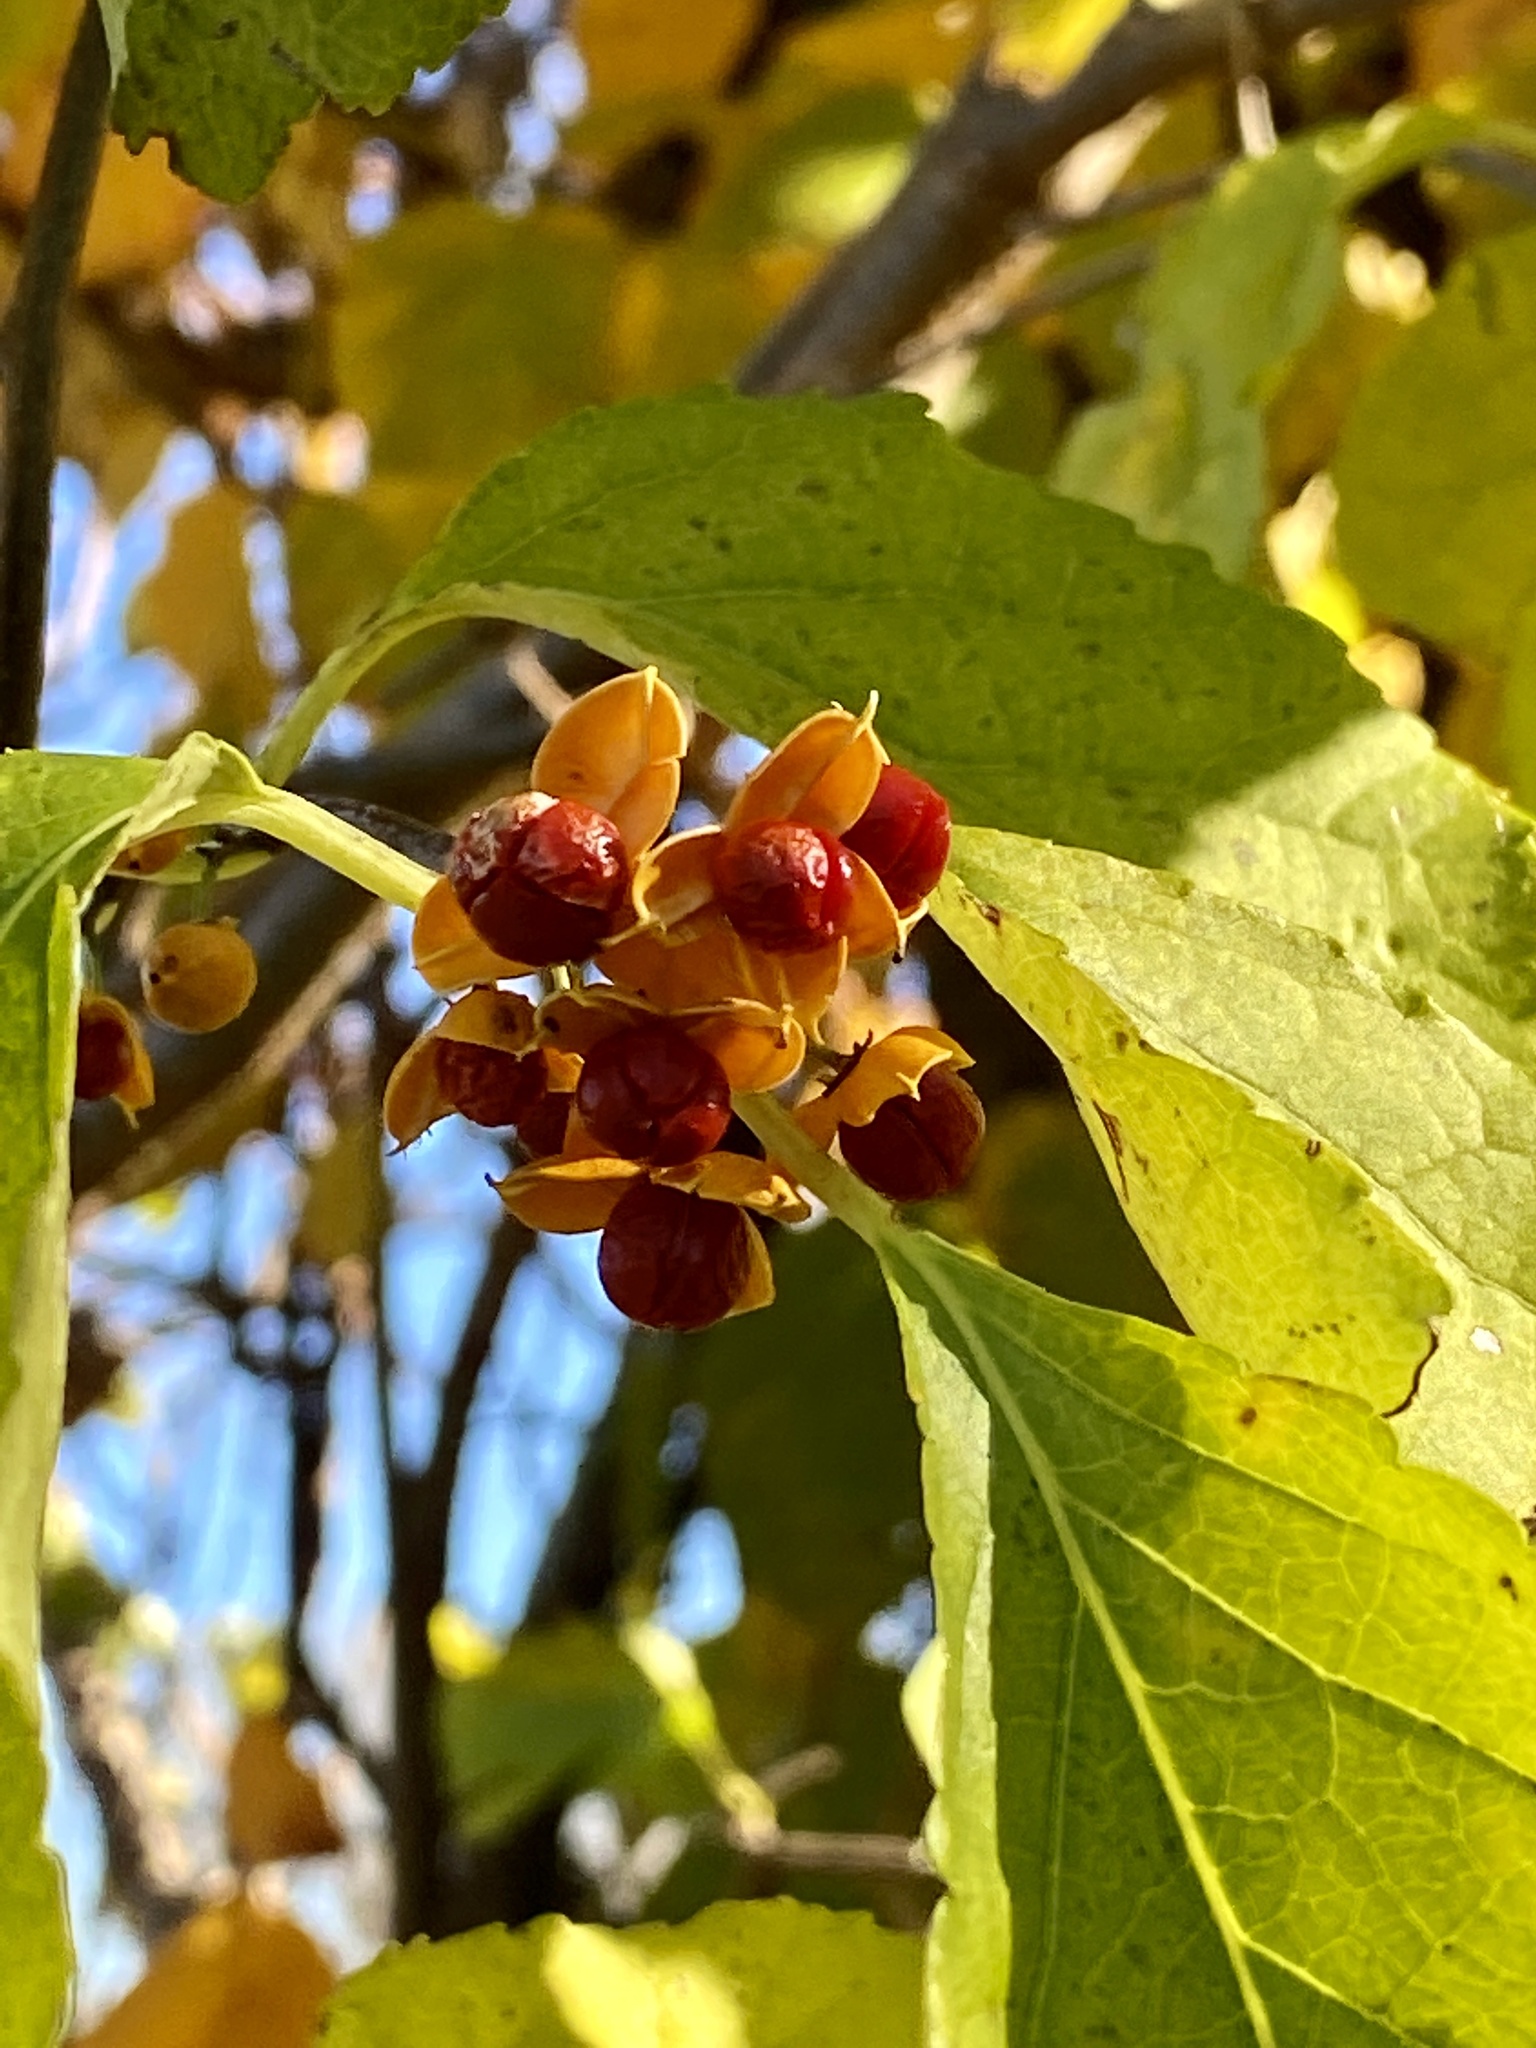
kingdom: Plantae
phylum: Tracheophyta
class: Magnoliopsida
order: Celastrales
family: Celastraceae
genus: Celastrus
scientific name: Celastrus orbiculatus
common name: Oriental bittersweet
